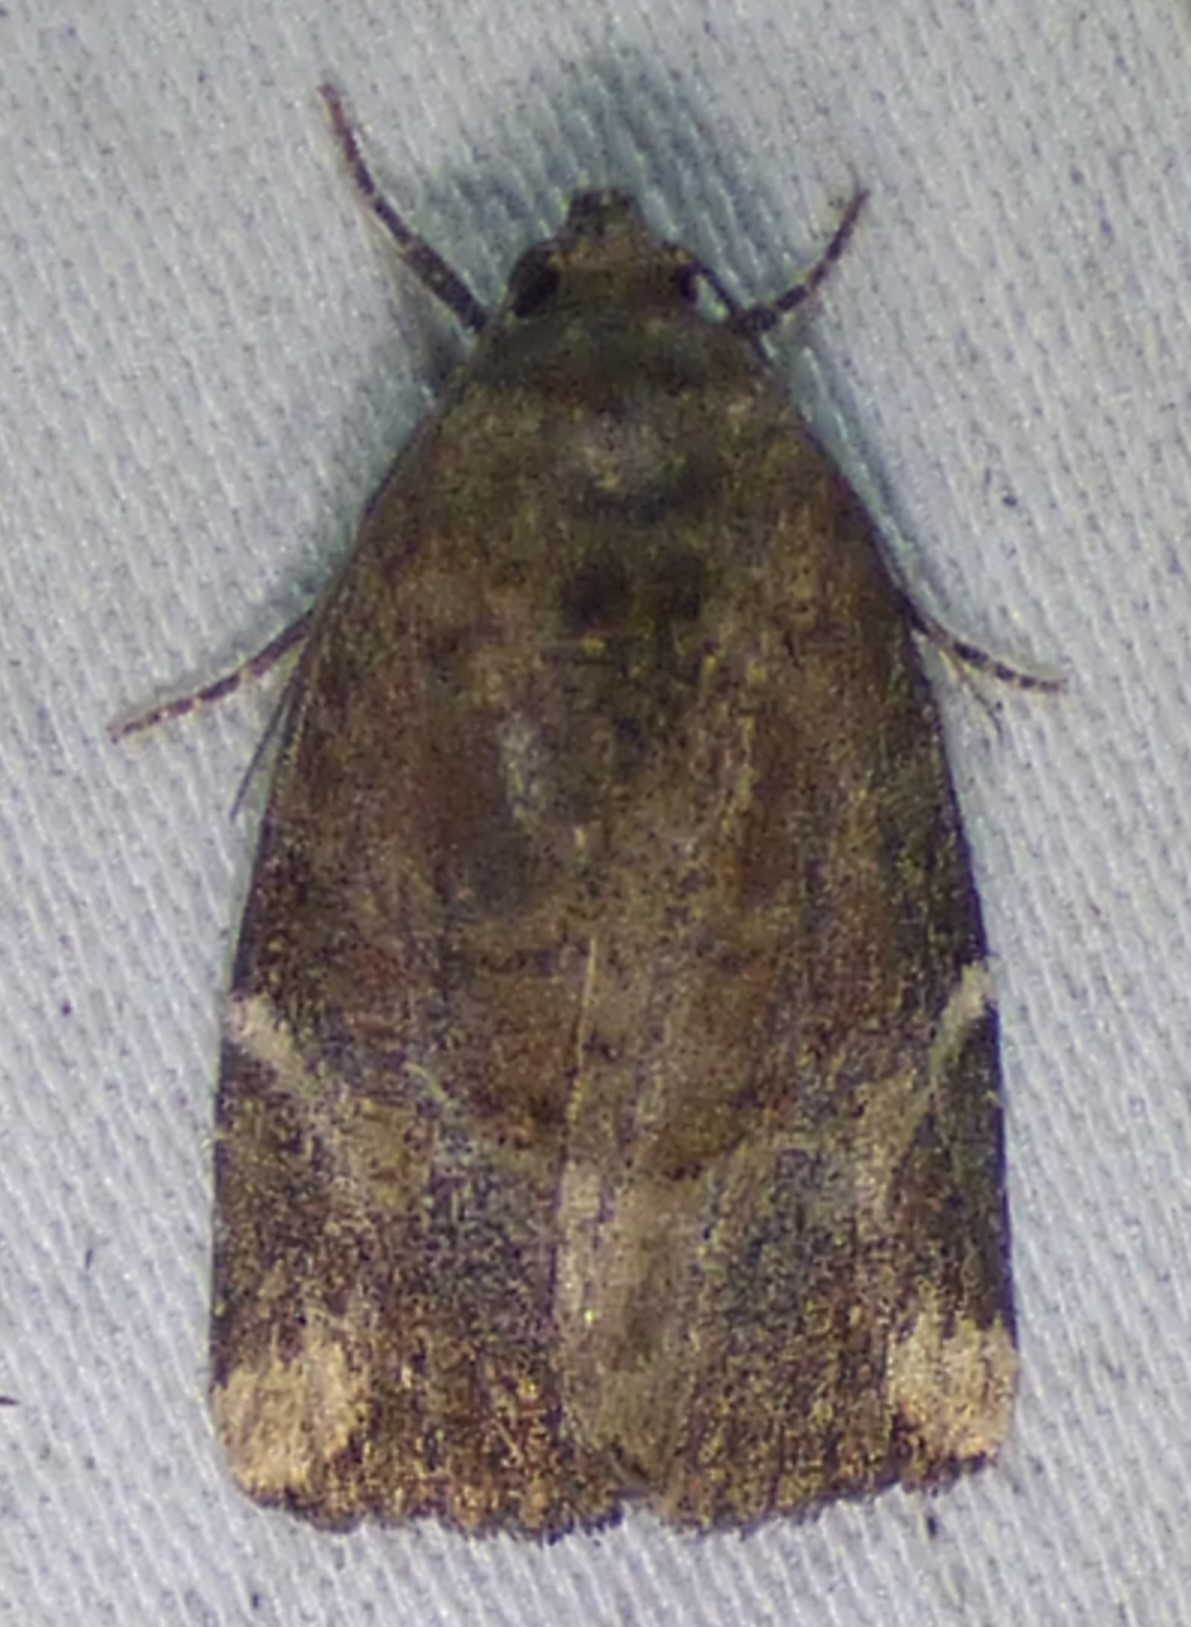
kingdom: Animalia
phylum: Arthropoda
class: Insecta
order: Lepidoptera
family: Noctuidae
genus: Elaphria
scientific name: Elaphria versicolor
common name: Fir harlequin
